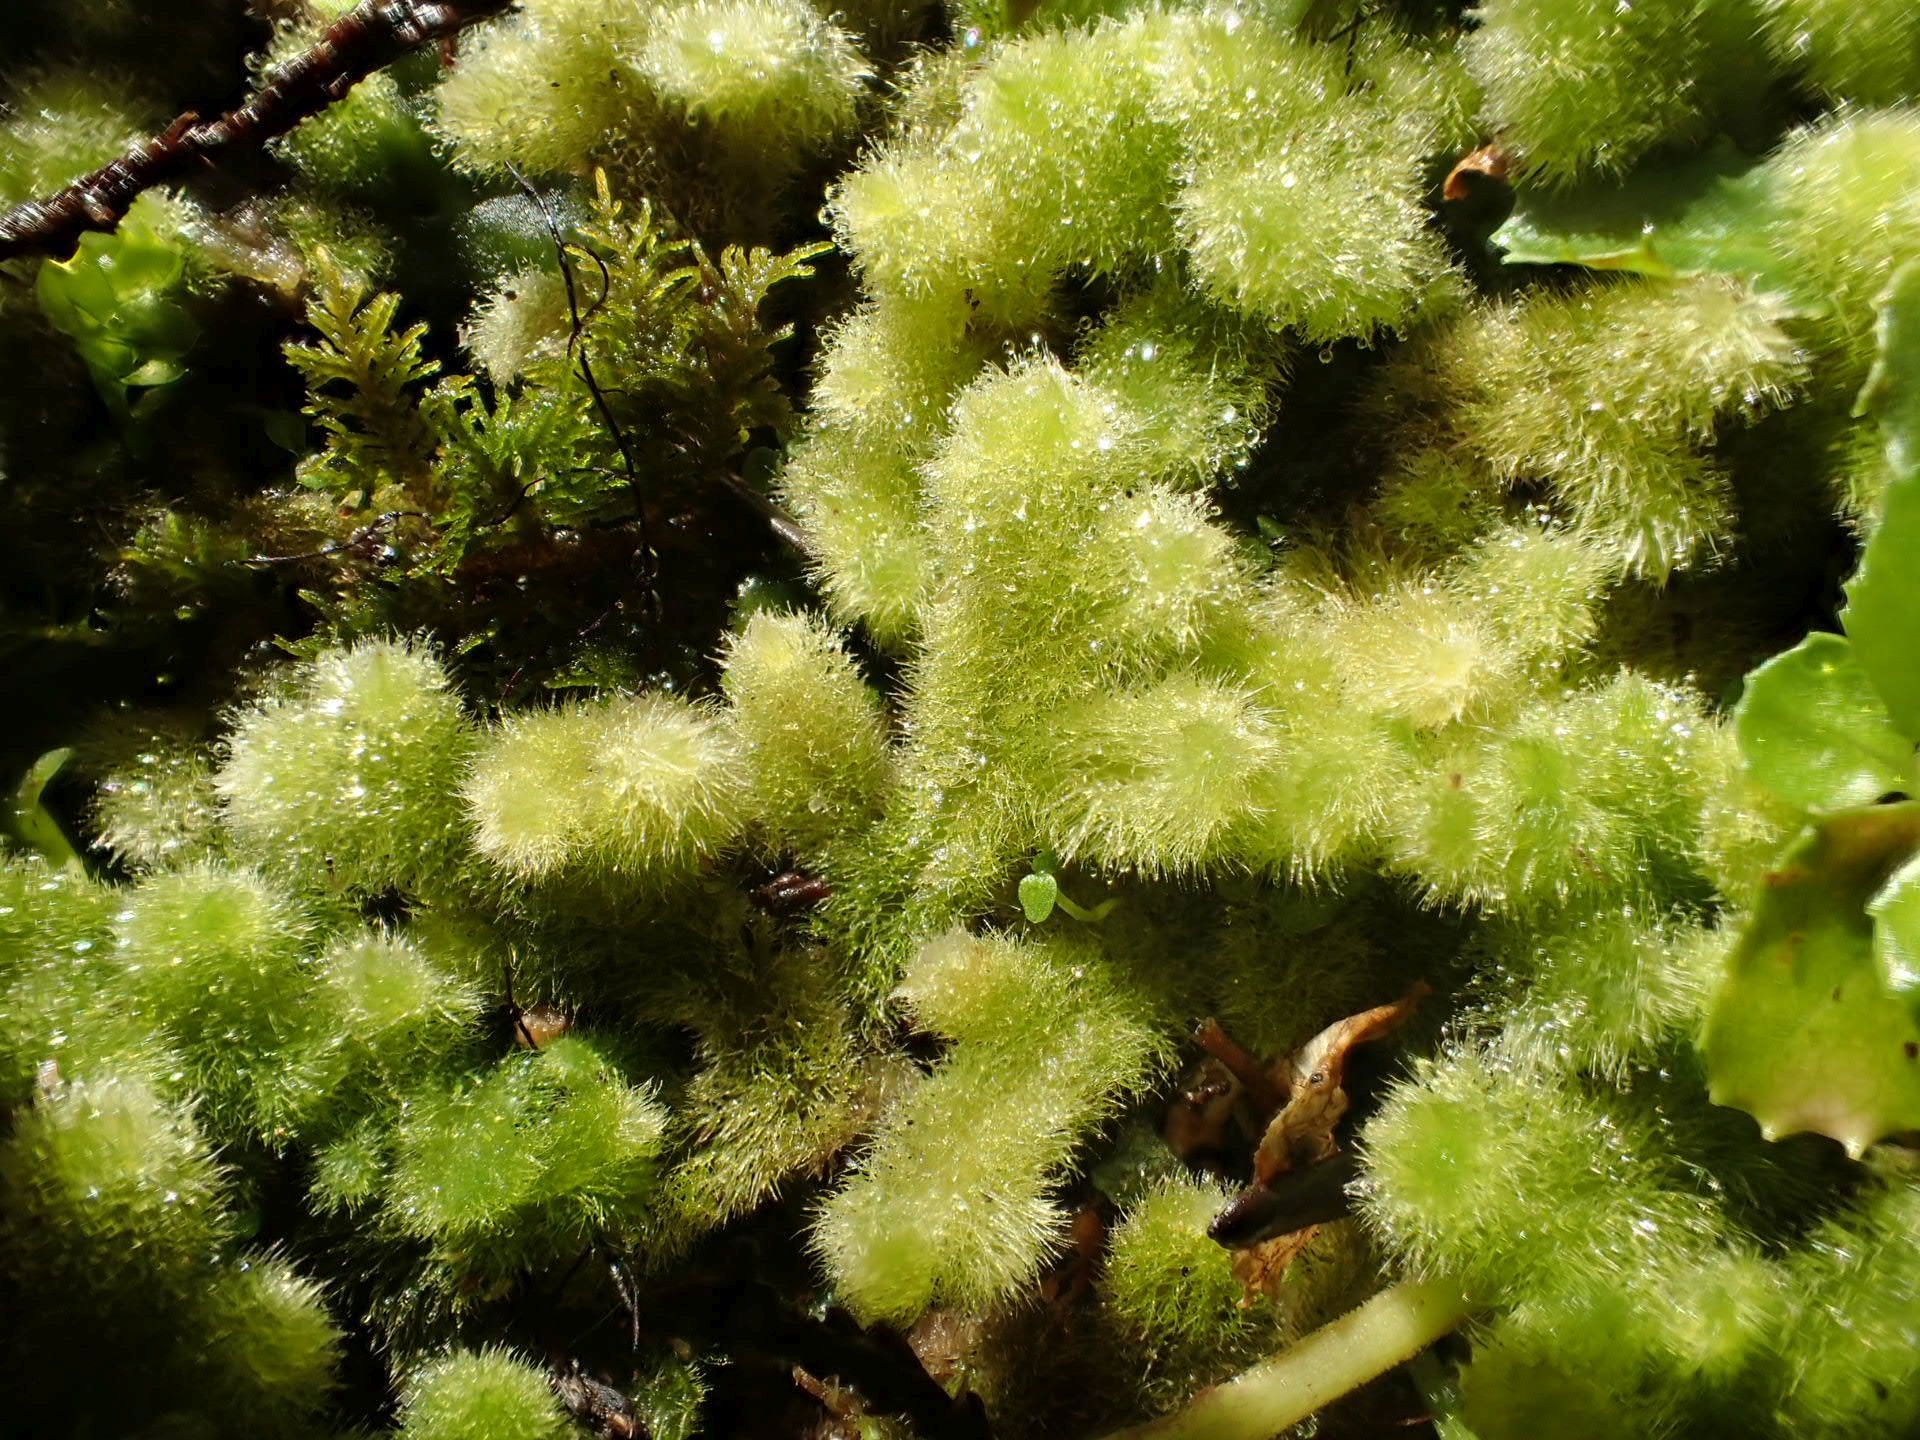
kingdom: Plantae
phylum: Marchantiophyta
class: Jungermanniopsida
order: Jungermanniales
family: Trichocoleaceae
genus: Leiomitra
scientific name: Leiomitra lanata
